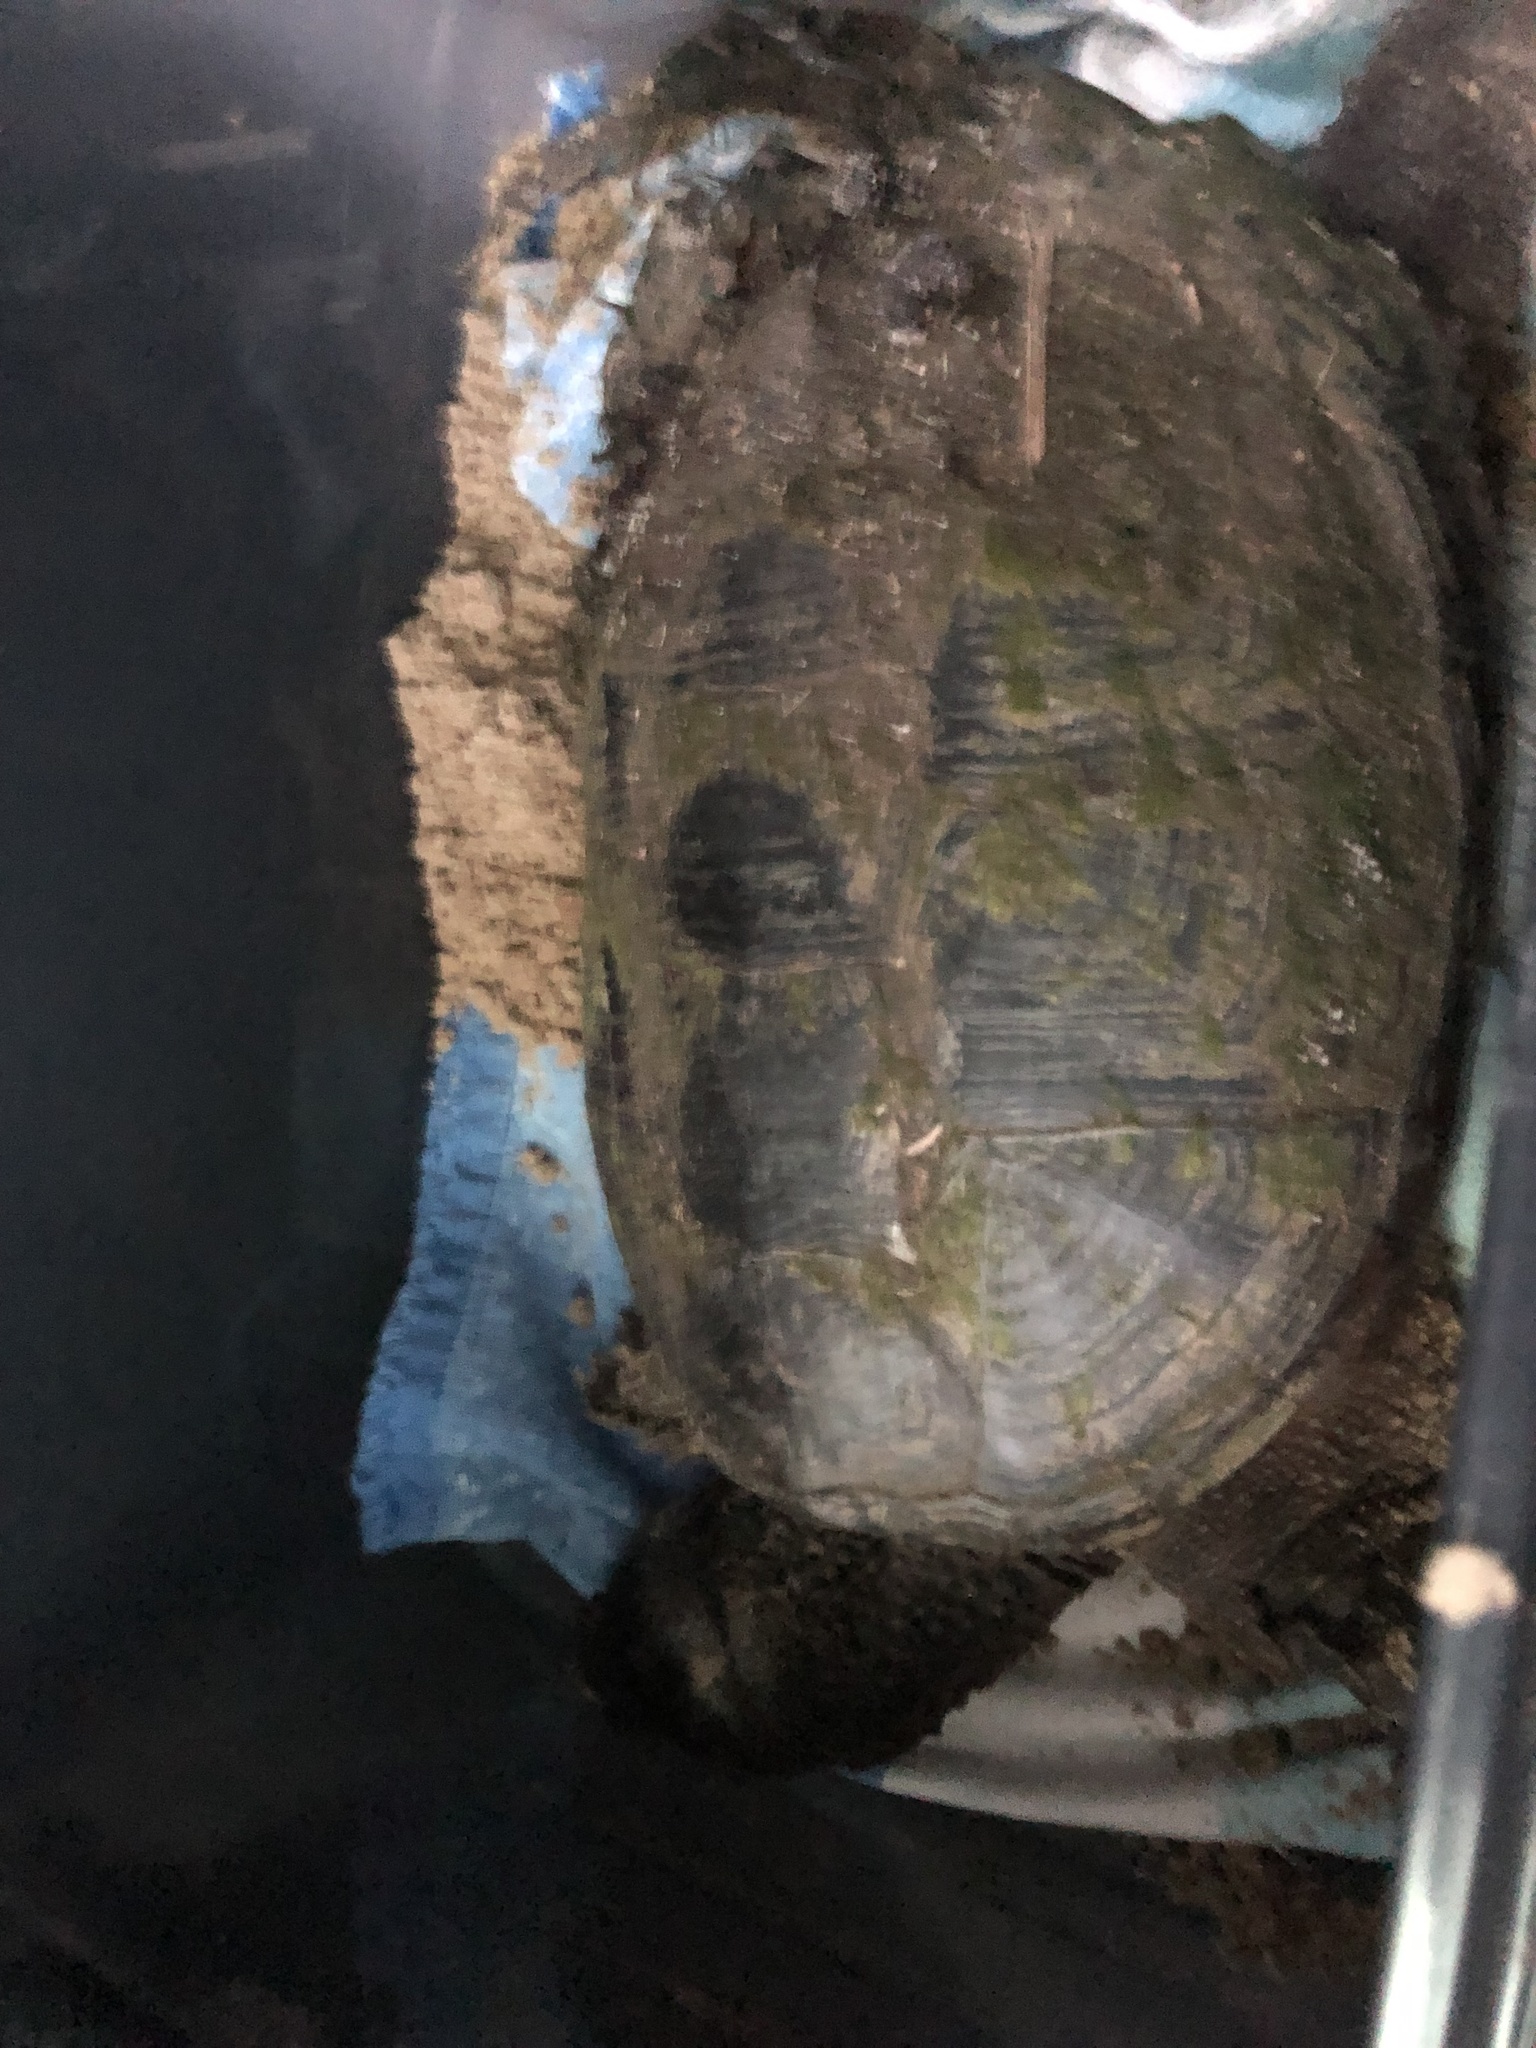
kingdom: Animalia
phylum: Chordata
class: Testudines
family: Chelydridae
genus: Chelydra
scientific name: Chelydra serpentina
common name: Common snapping turtle
